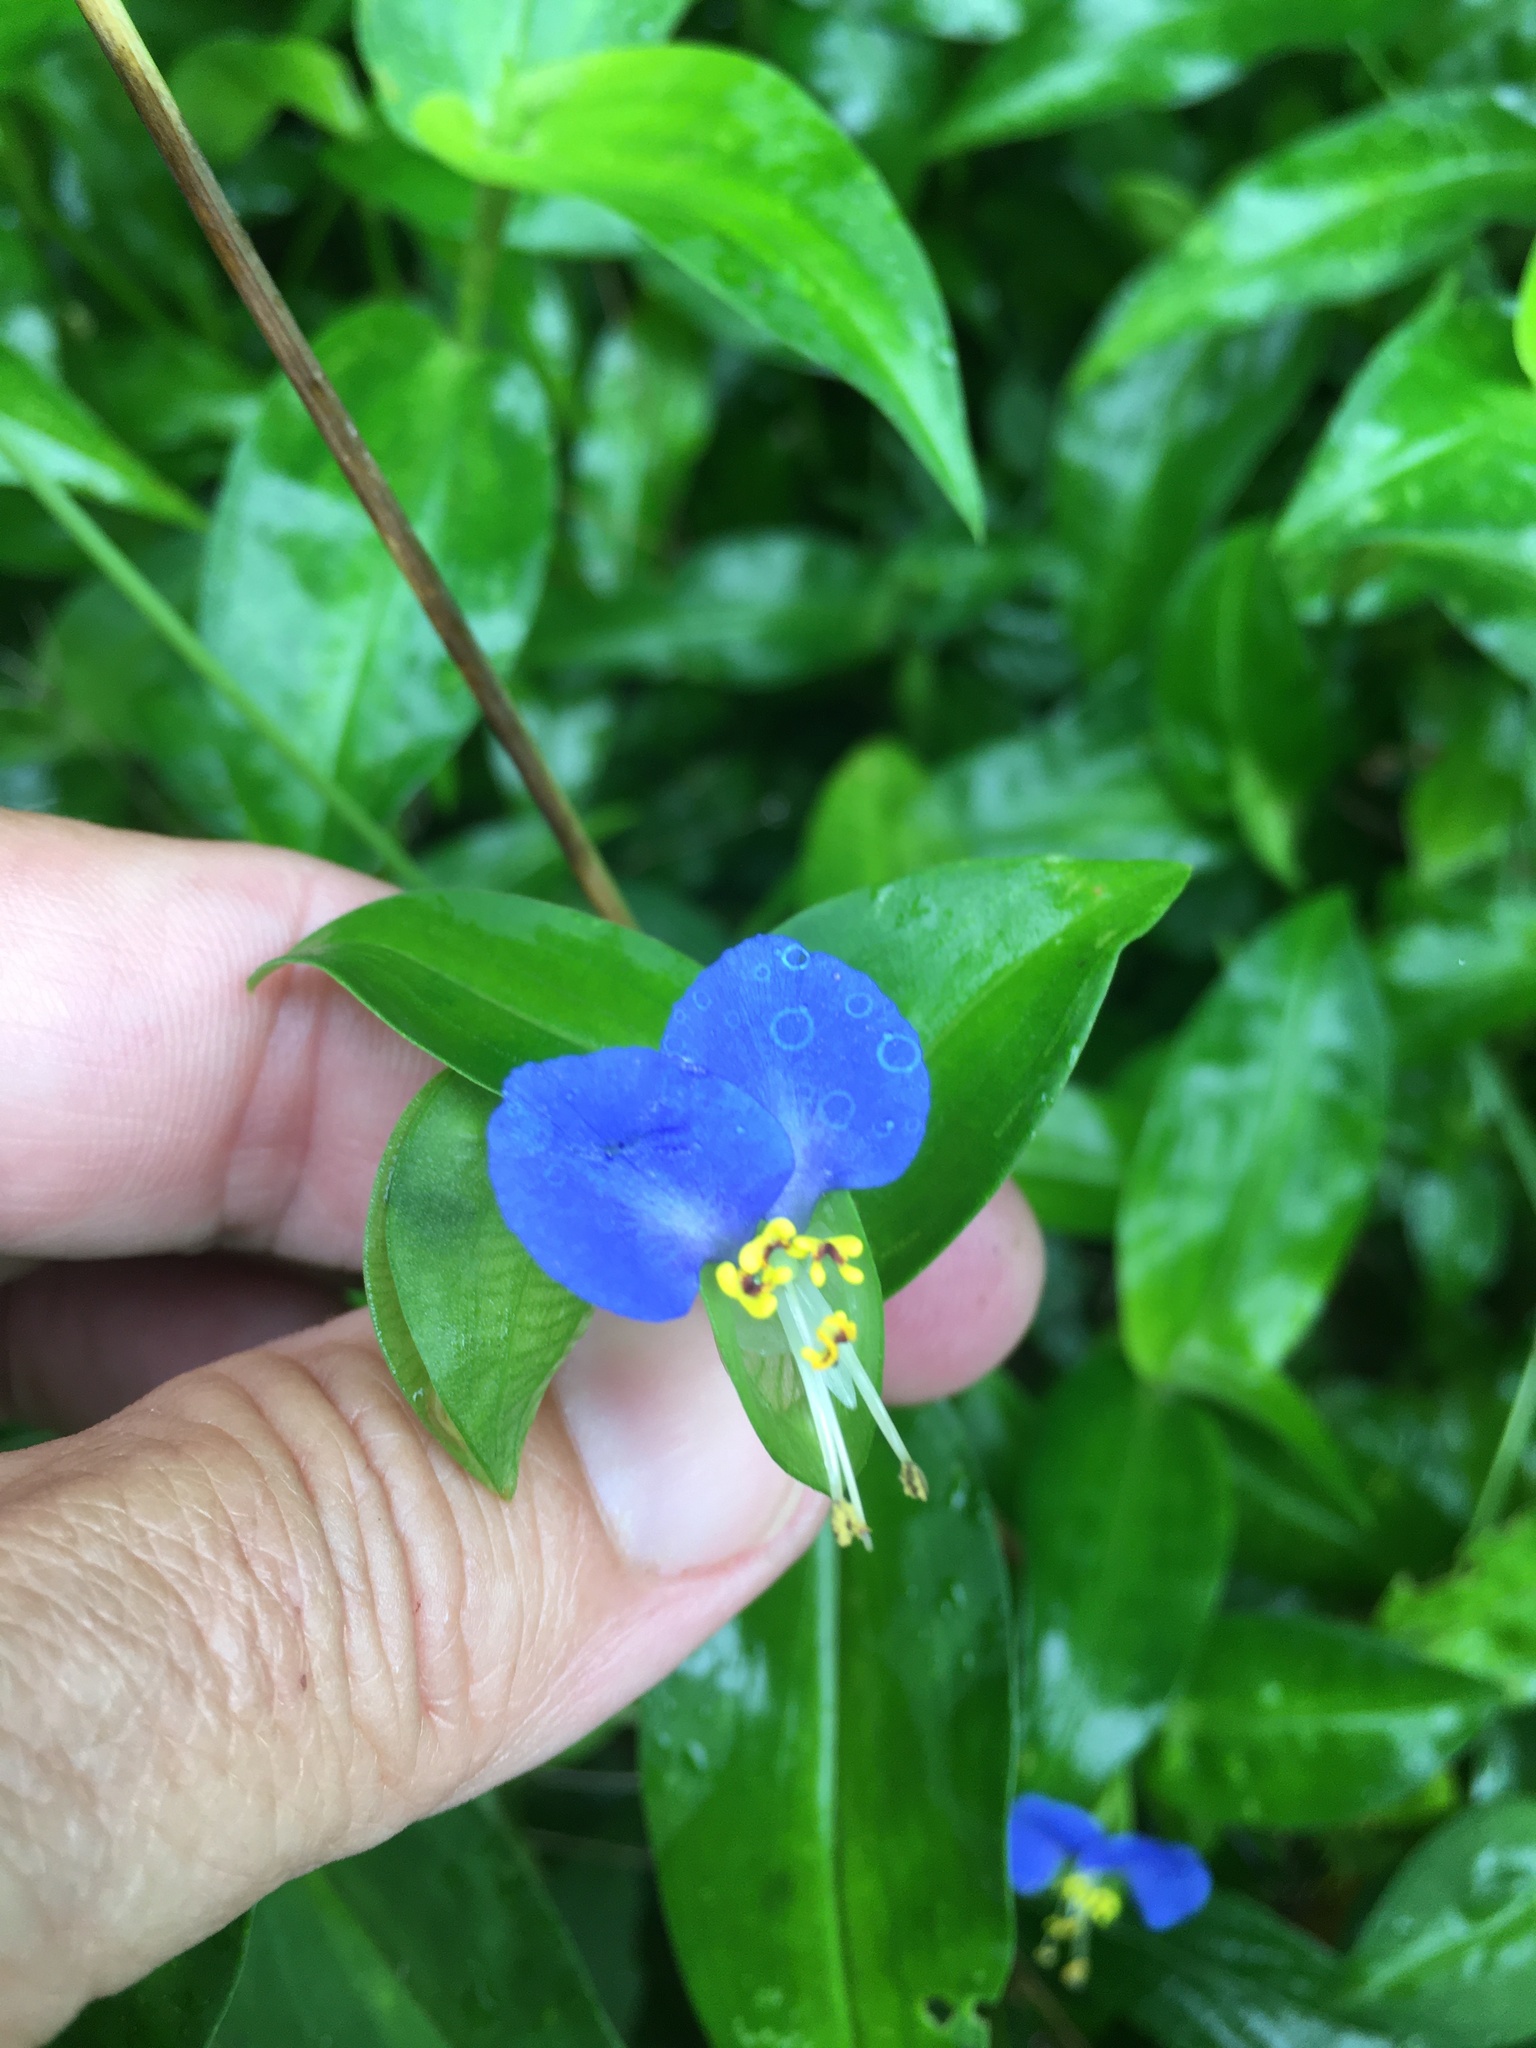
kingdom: Plantae
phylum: Tracheophyta
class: Liliopsida
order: Commelinales
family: Commelinaceae
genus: Commelina
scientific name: Commelina communis
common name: Asiatic dayflower
